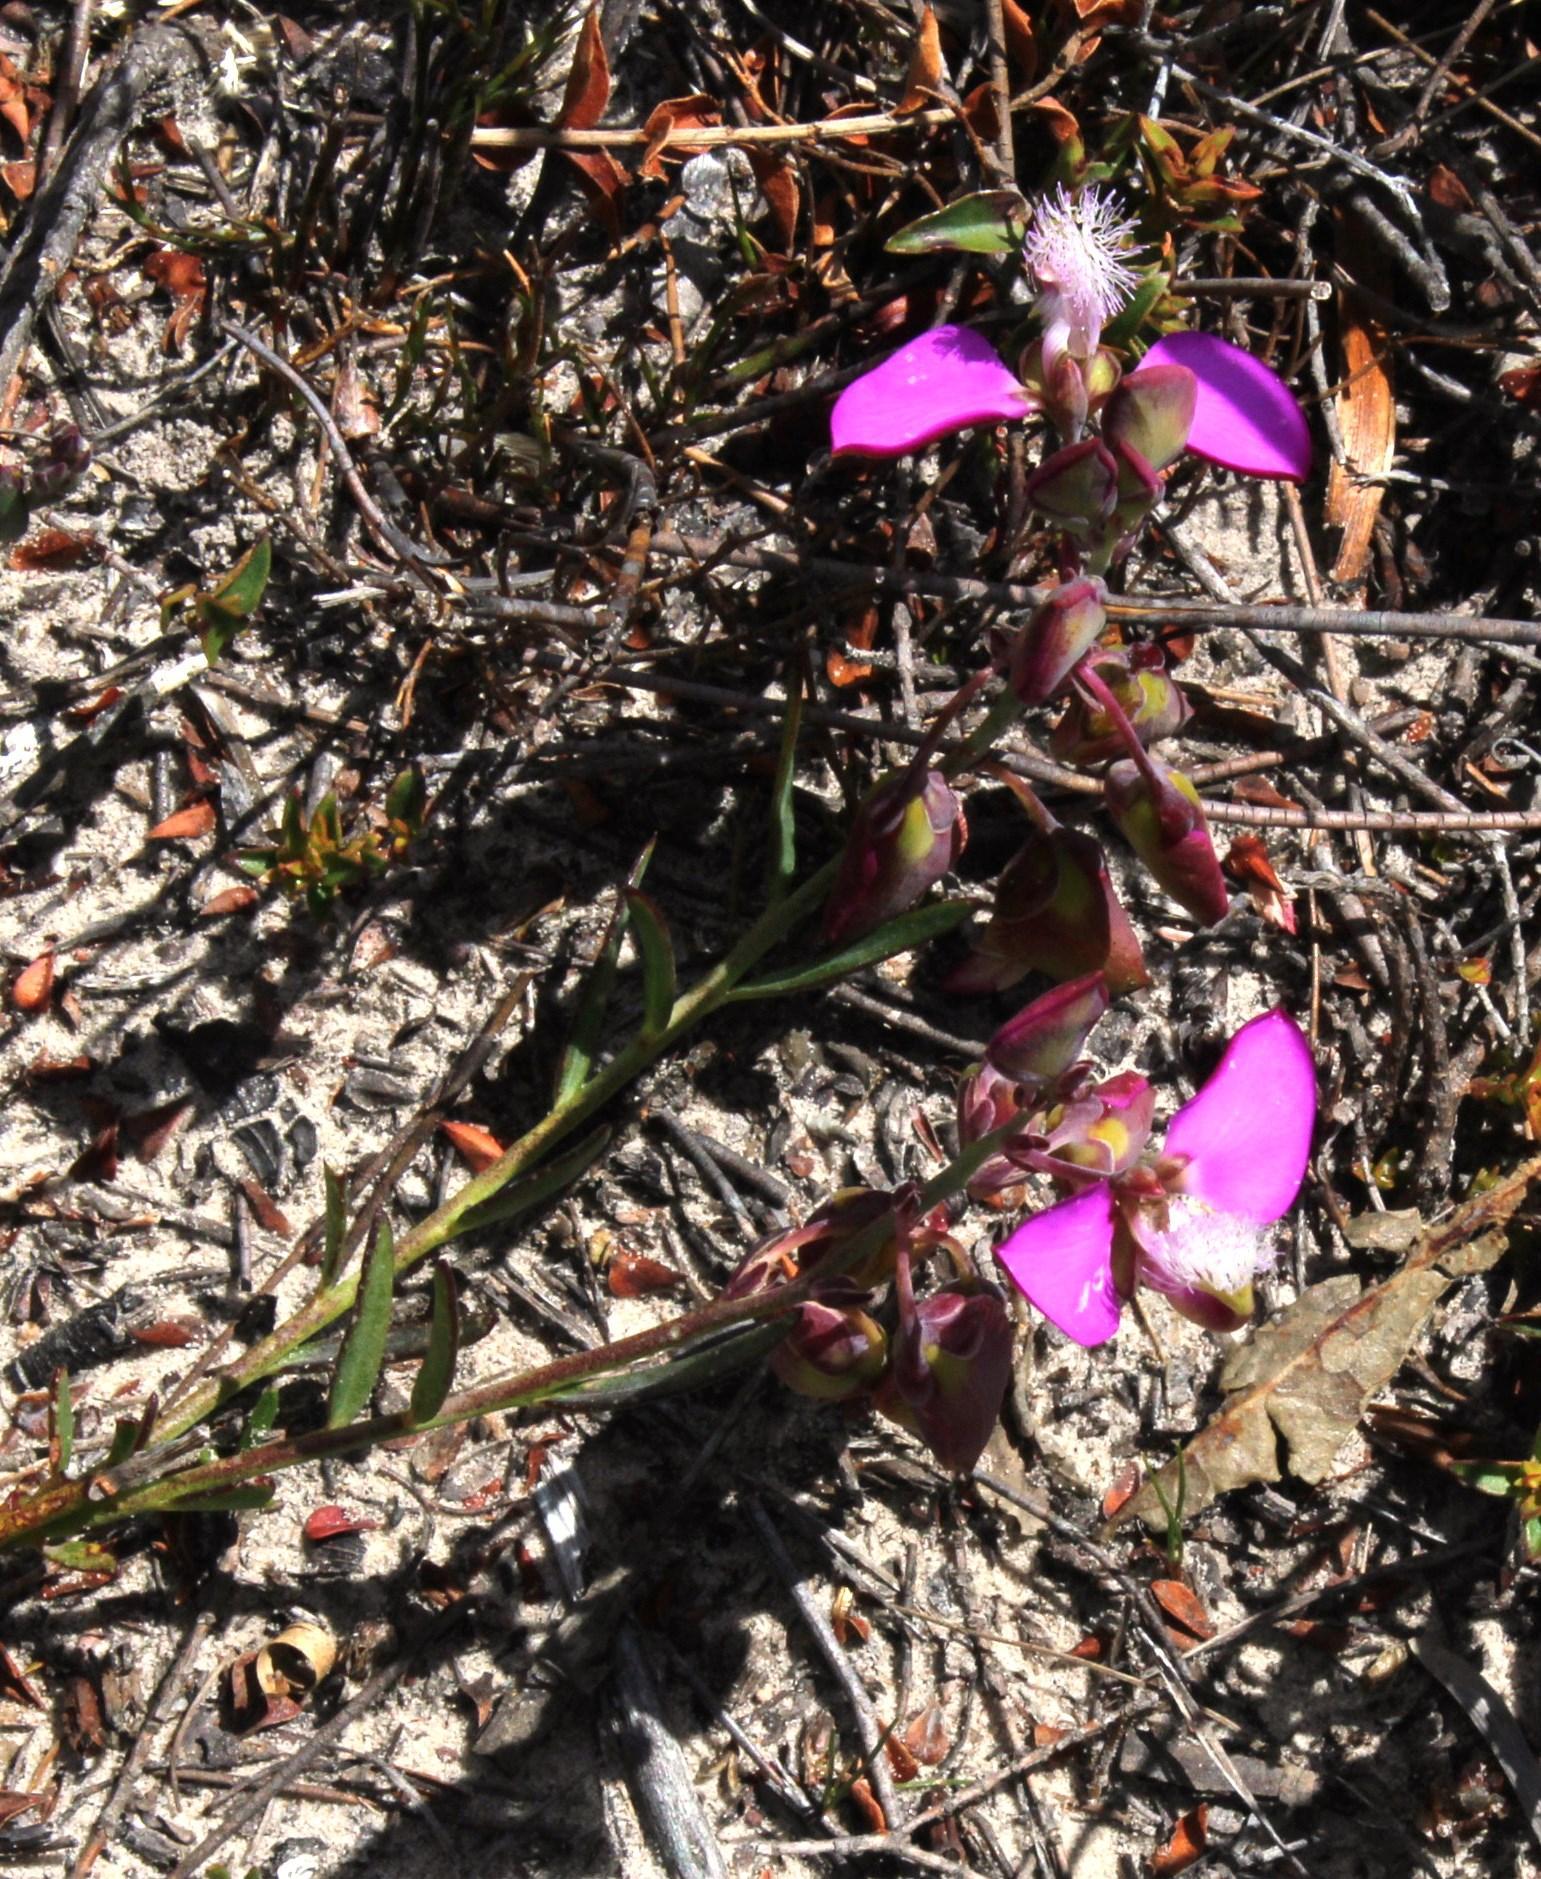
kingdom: Plantae
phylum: Tracheophyta
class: Magnoliopsida
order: Fabales
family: Polygalaceae
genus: Polygala
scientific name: Polygala bracteolata
